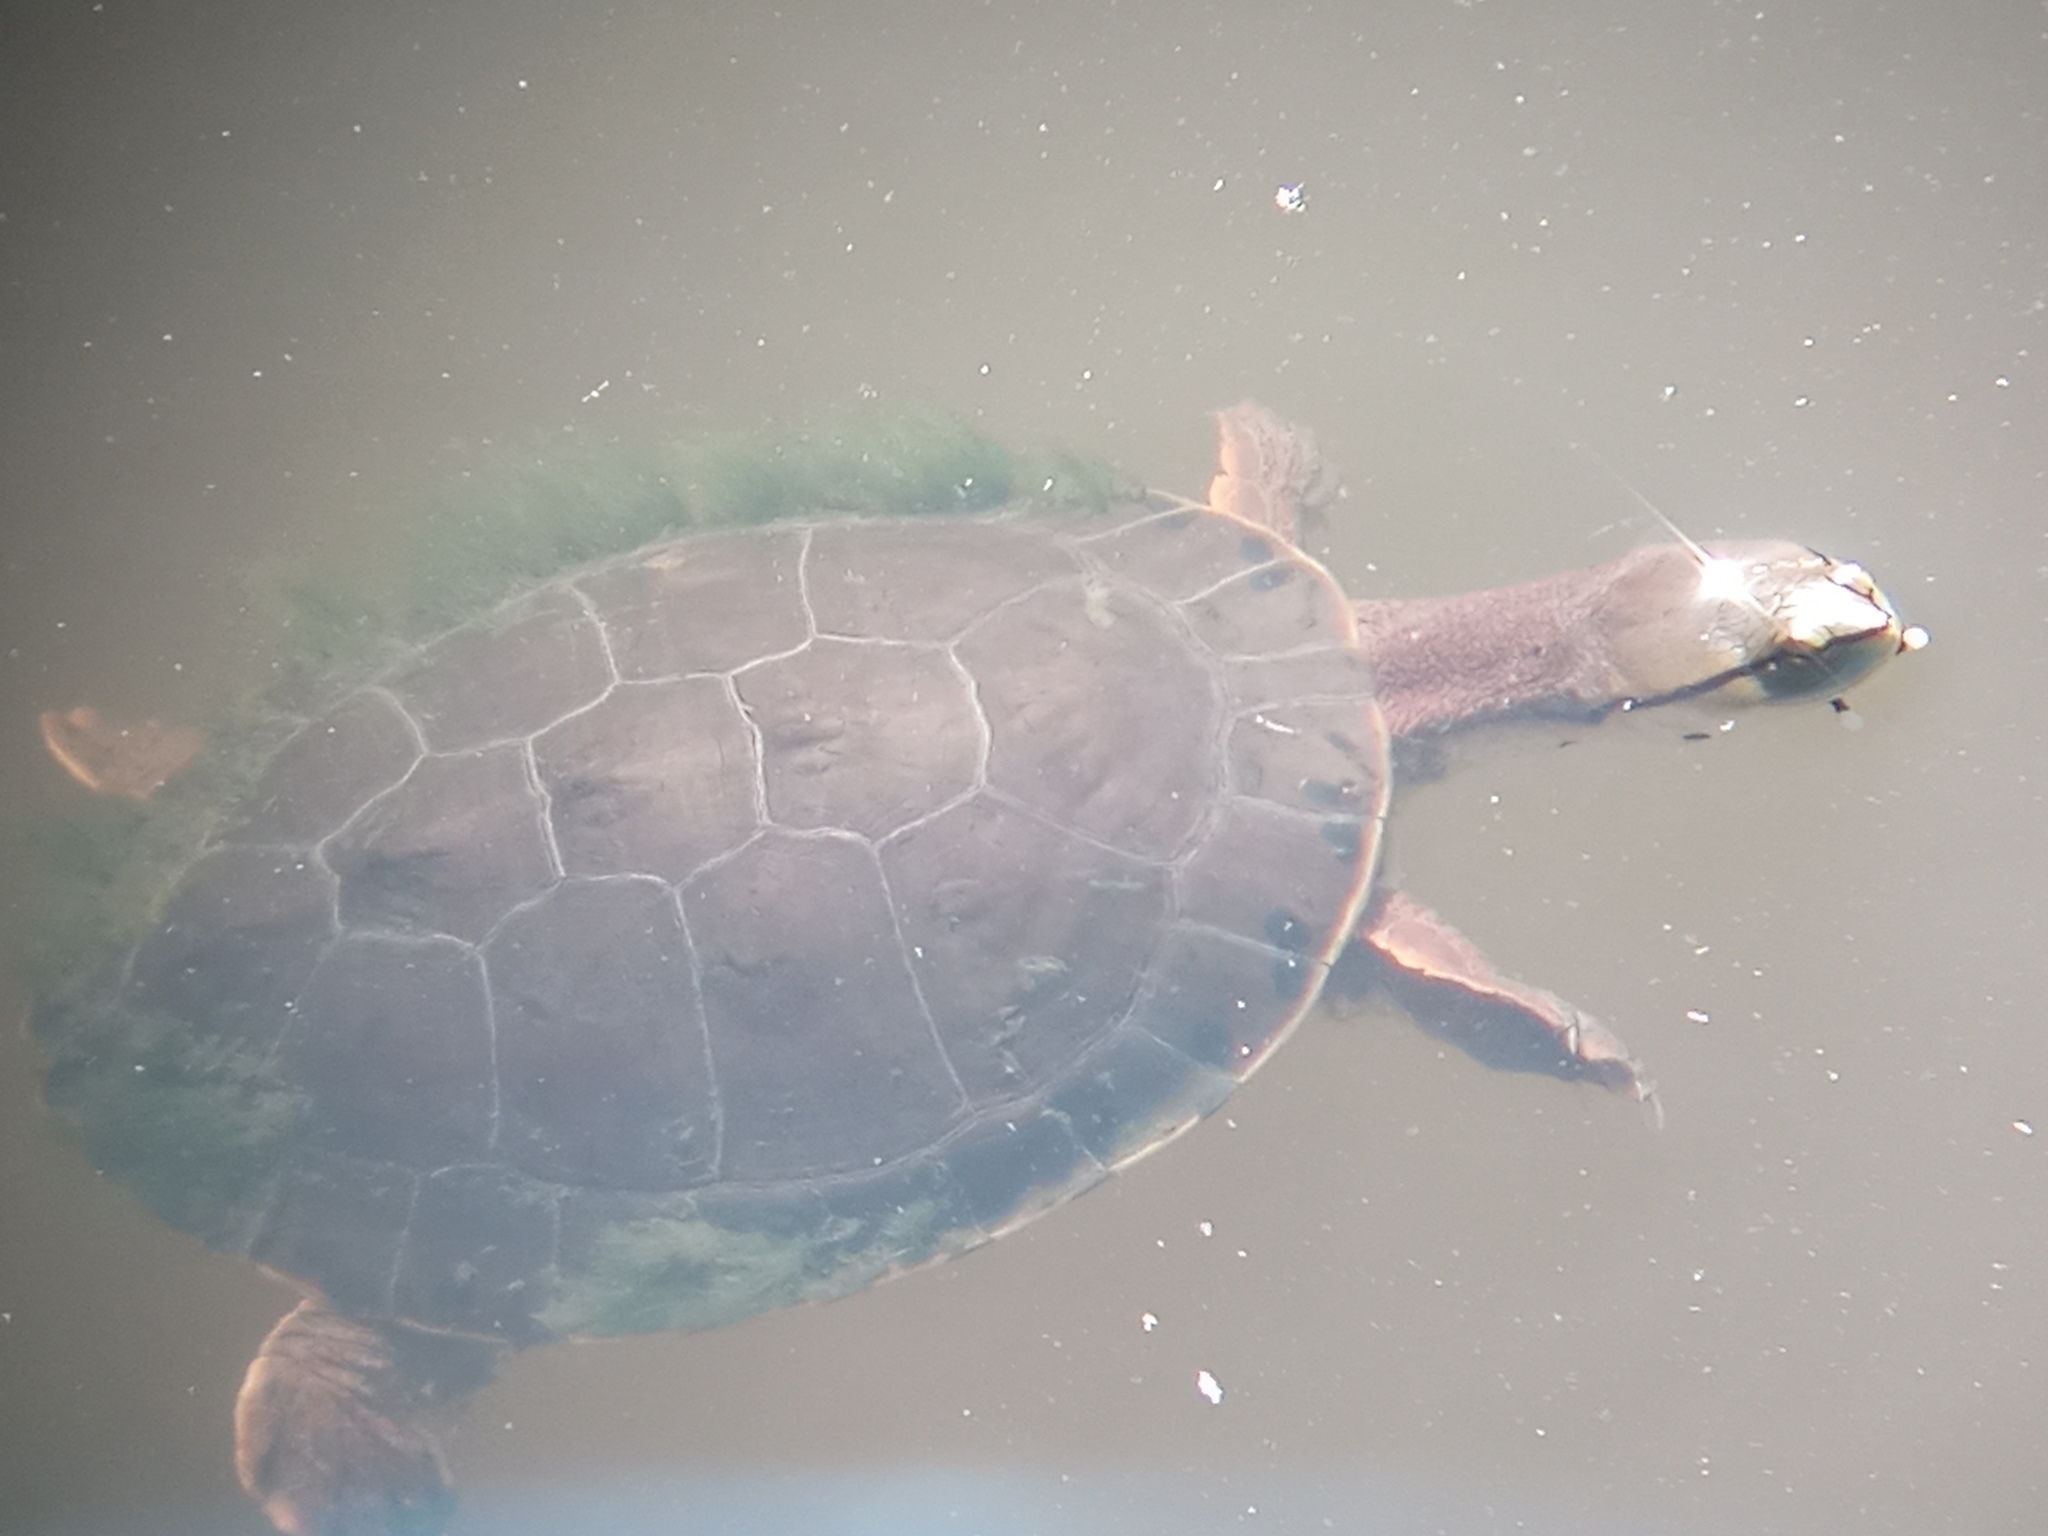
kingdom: Animalia
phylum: Chordata
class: Testudines
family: Chelidae
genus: Phrynops
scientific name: Phrynops hilarii
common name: Side-necked turtle of saint hillaire
